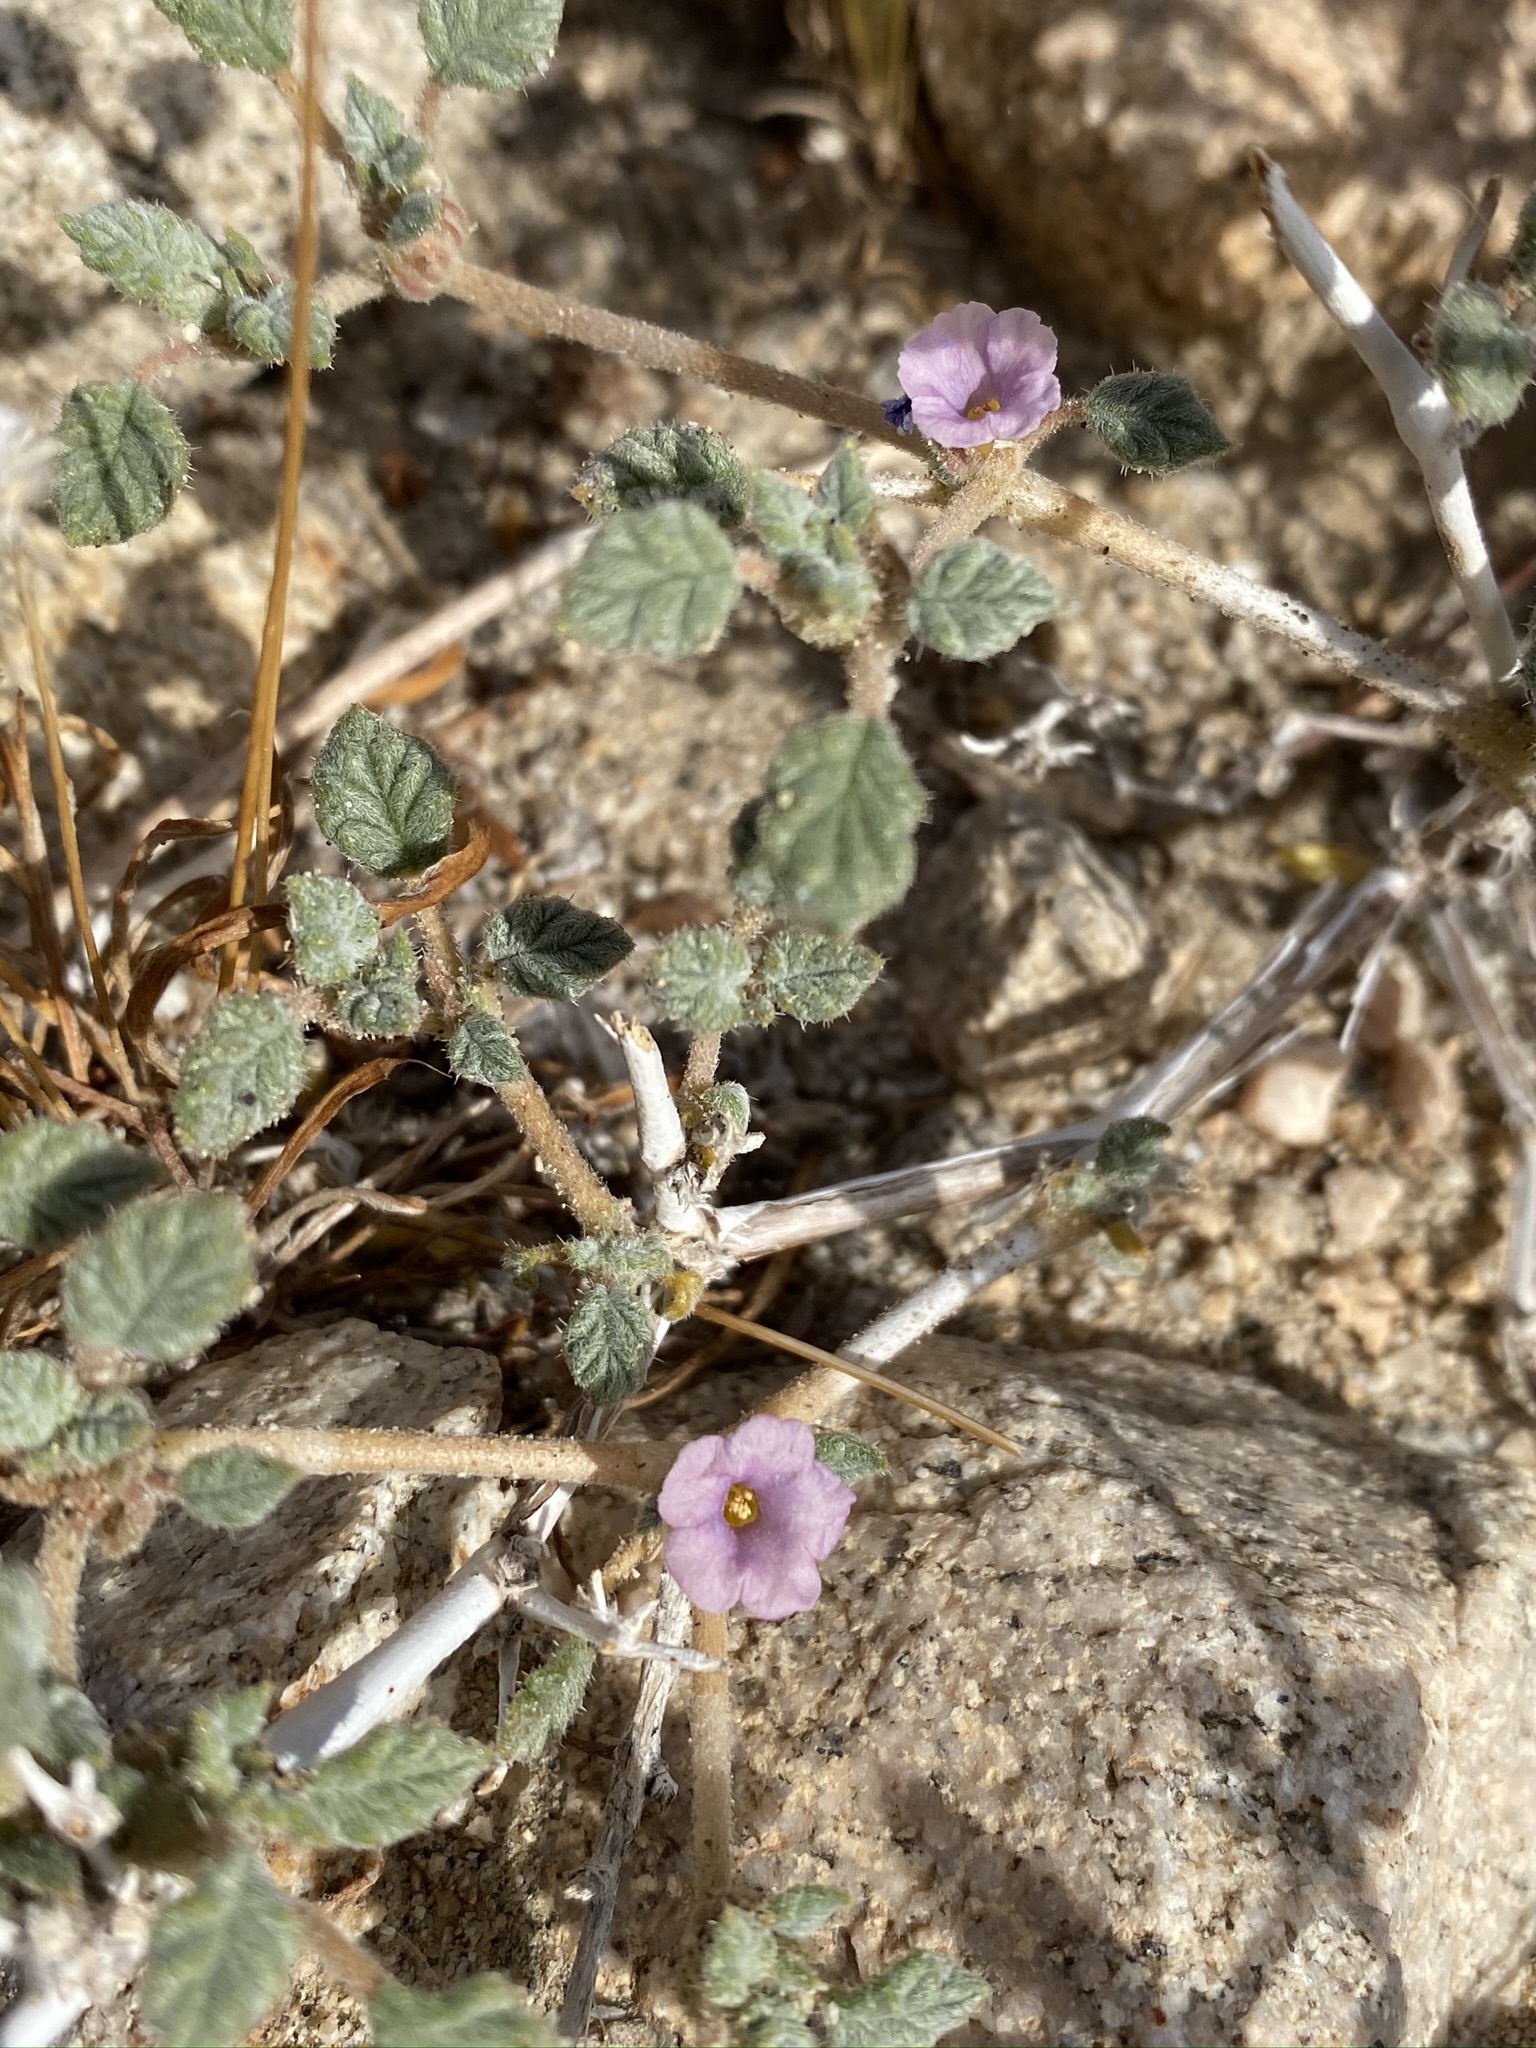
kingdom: Plantae
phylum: Tracheophyta
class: Magnoliopsida
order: Boraginales
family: Ehretiaceae
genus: Tiquilia
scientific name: Tiquilia palmeri
